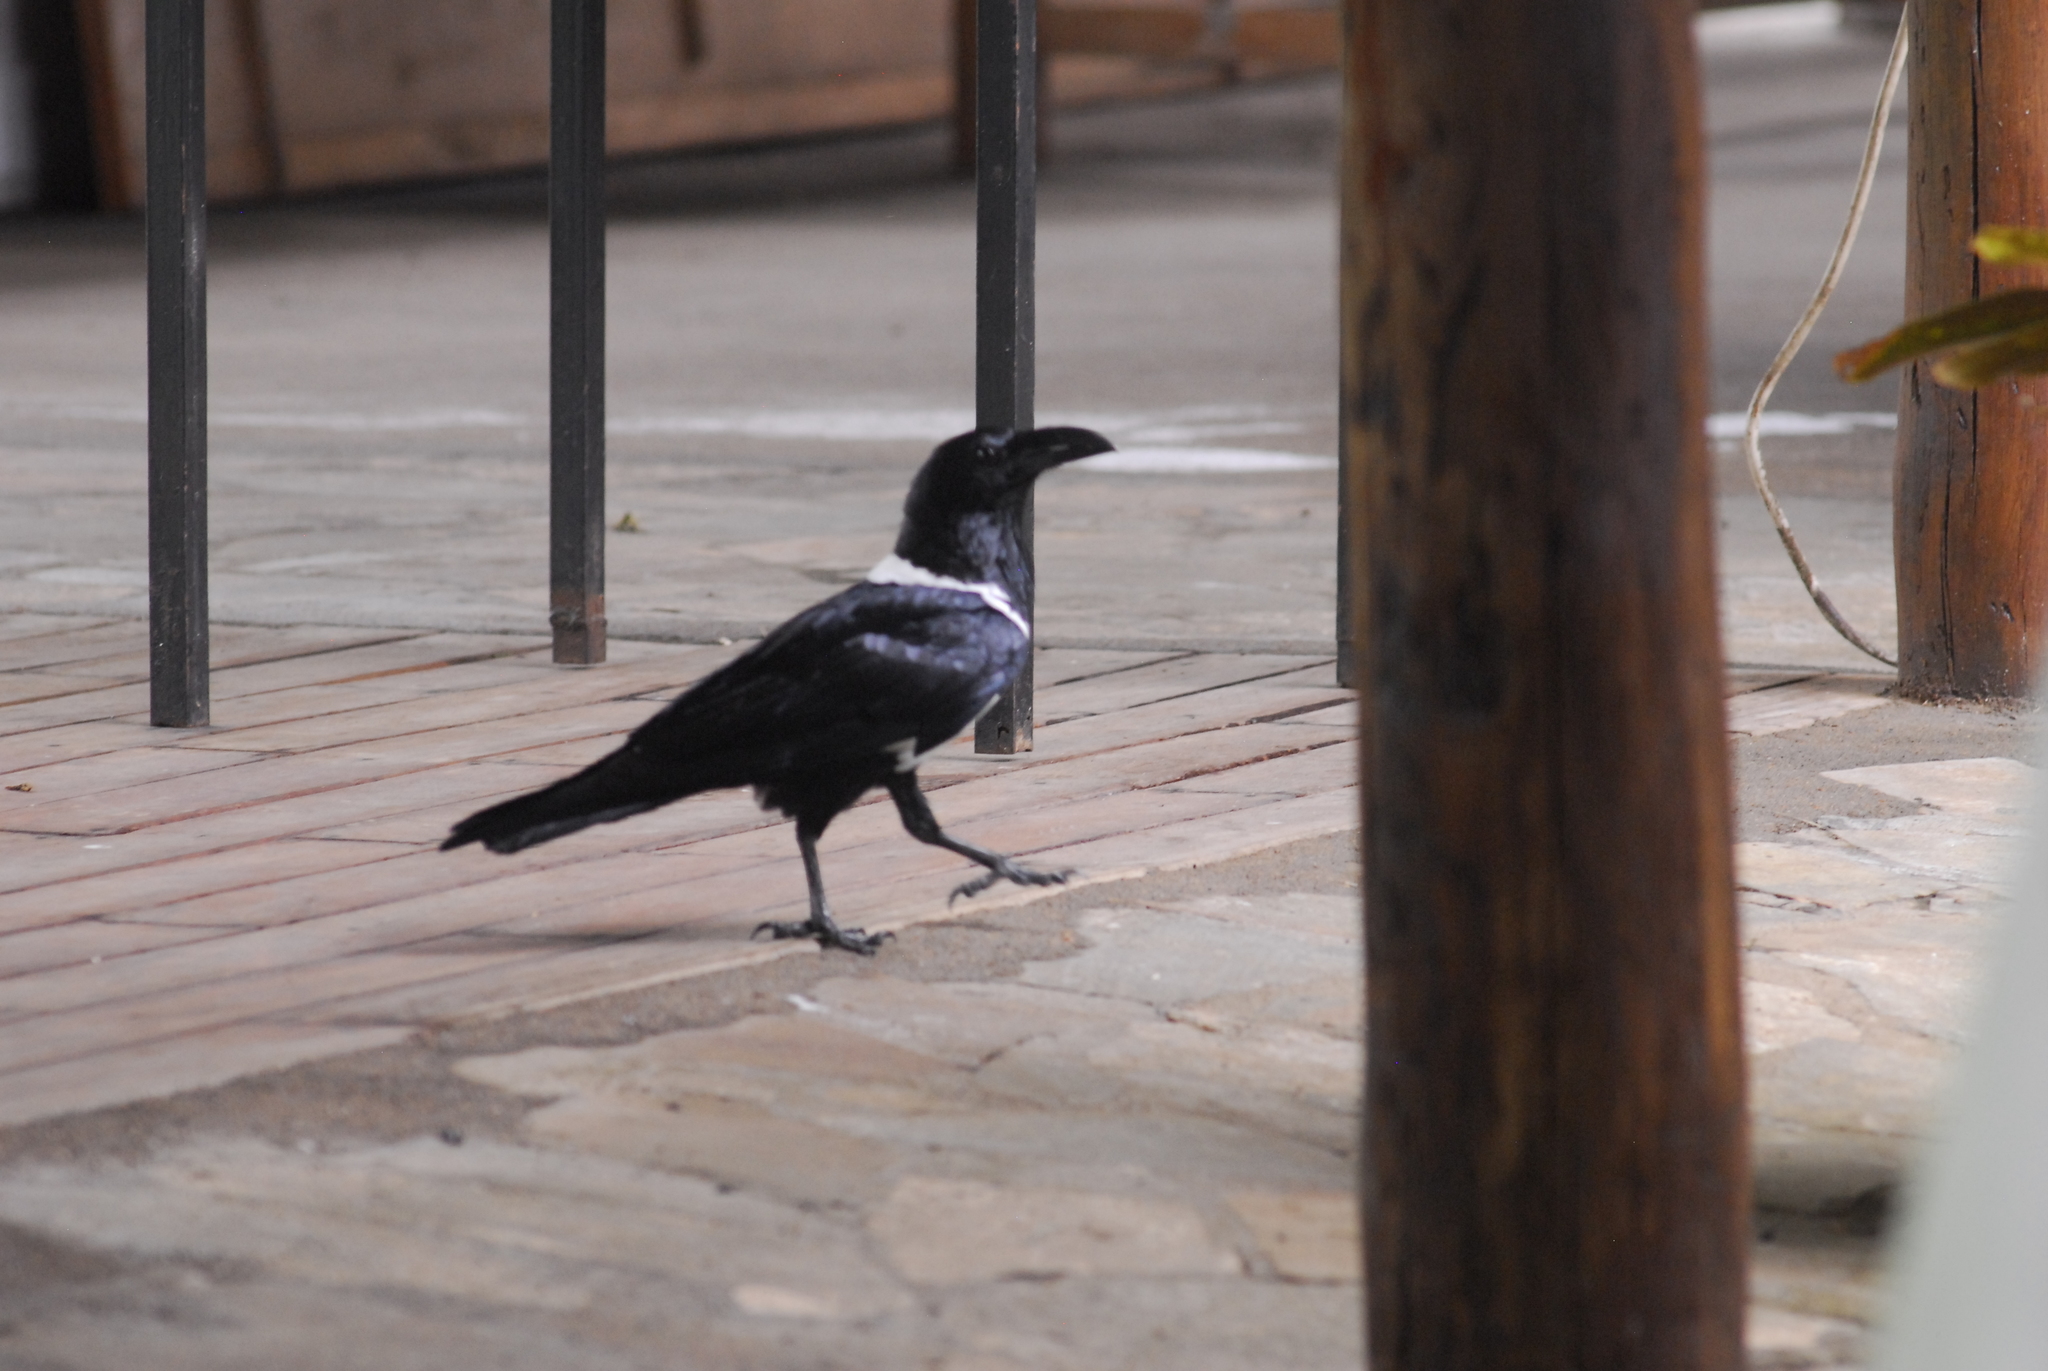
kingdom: Animalia
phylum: Chordata
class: Aves
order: Passeriformes
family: Corvidae
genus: Corvus
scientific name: Corvus albus
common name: Pied crow
